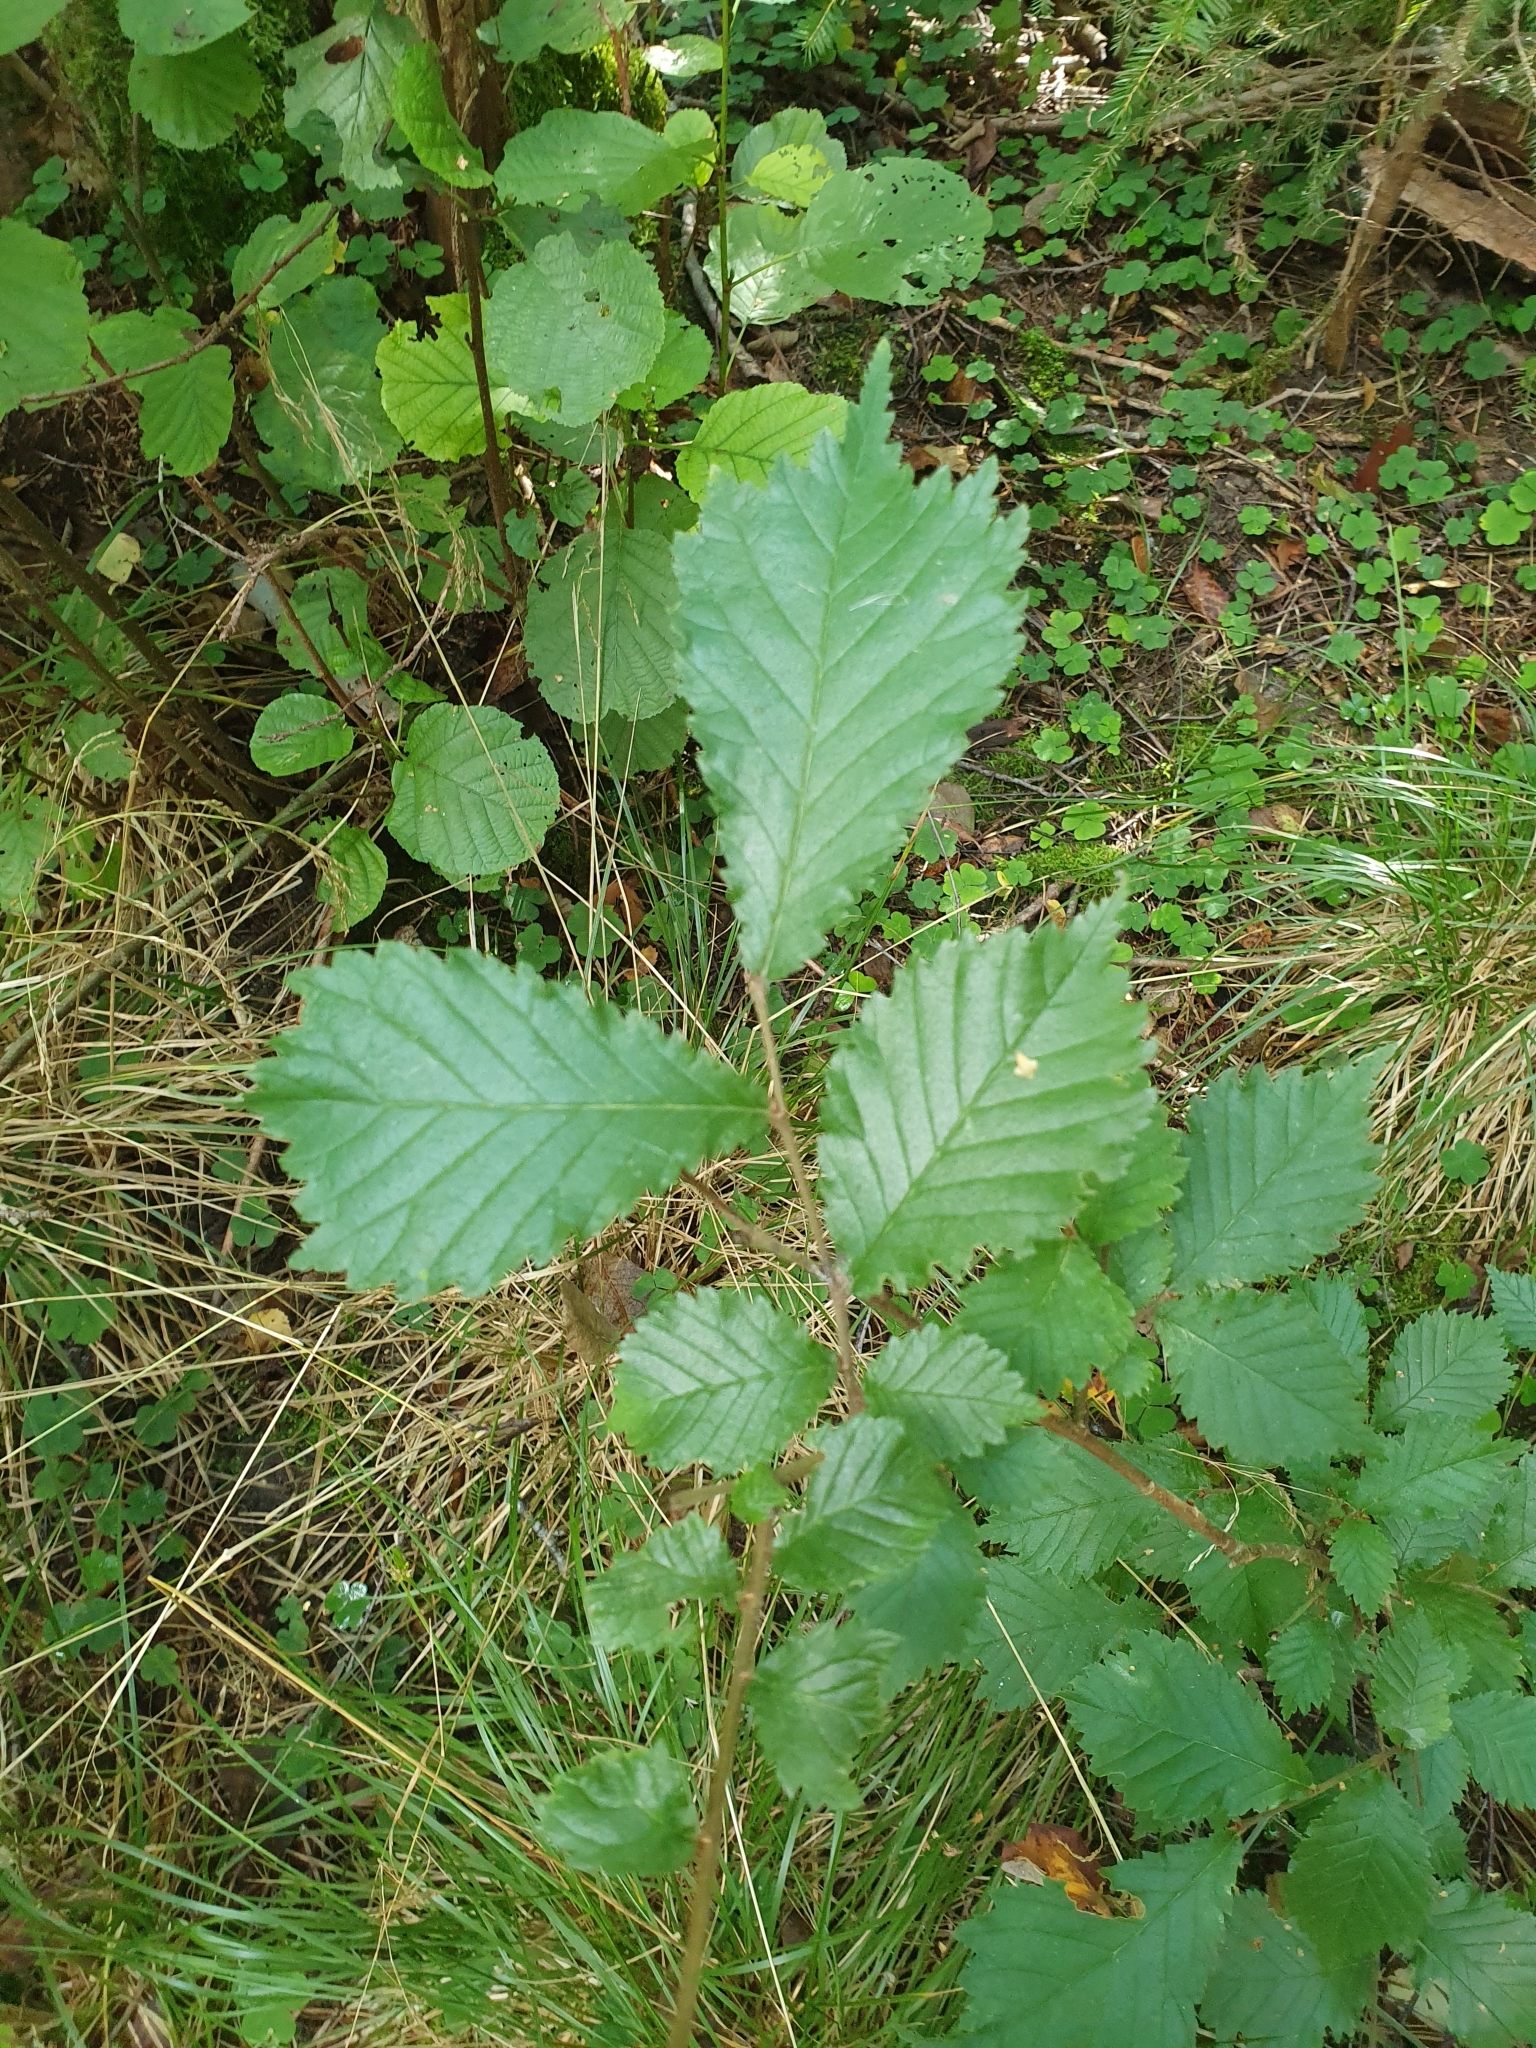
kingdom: Plantae
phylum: Tracheophyta
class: Magnoliopsida
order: Rosales
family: Ulmaceae
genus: Ulmus
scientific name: Ulmus glabra
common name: Wych elm
